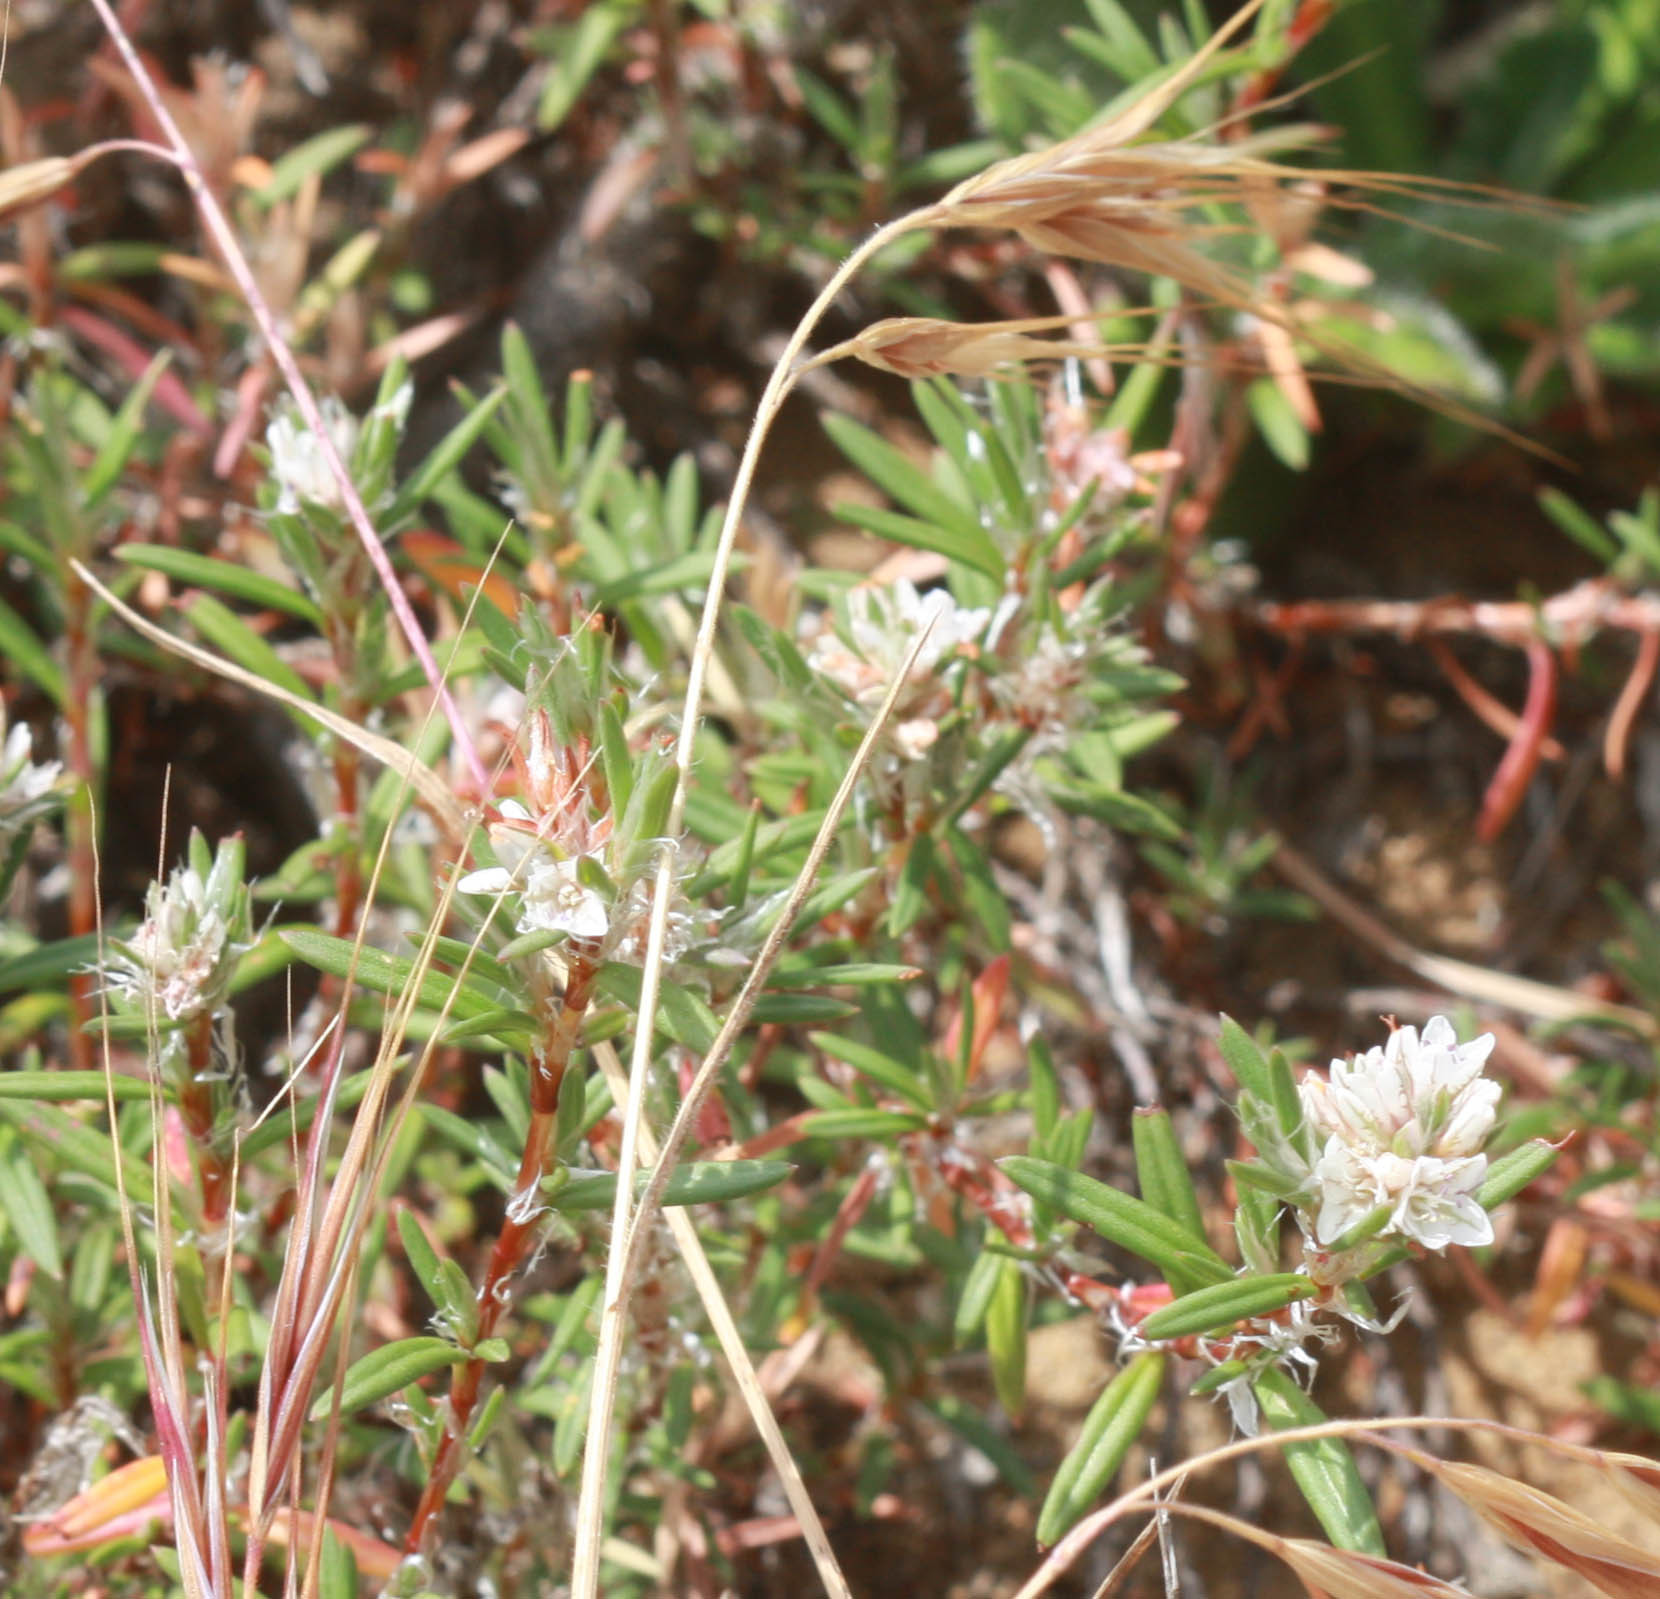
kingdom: Plantae
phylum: Tracheophyta
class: Magnoliopsida
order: Caryophyllales
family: Polygonaceae
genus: Polygonum
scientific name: Polygonum paronychia
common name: Dune knotweed
